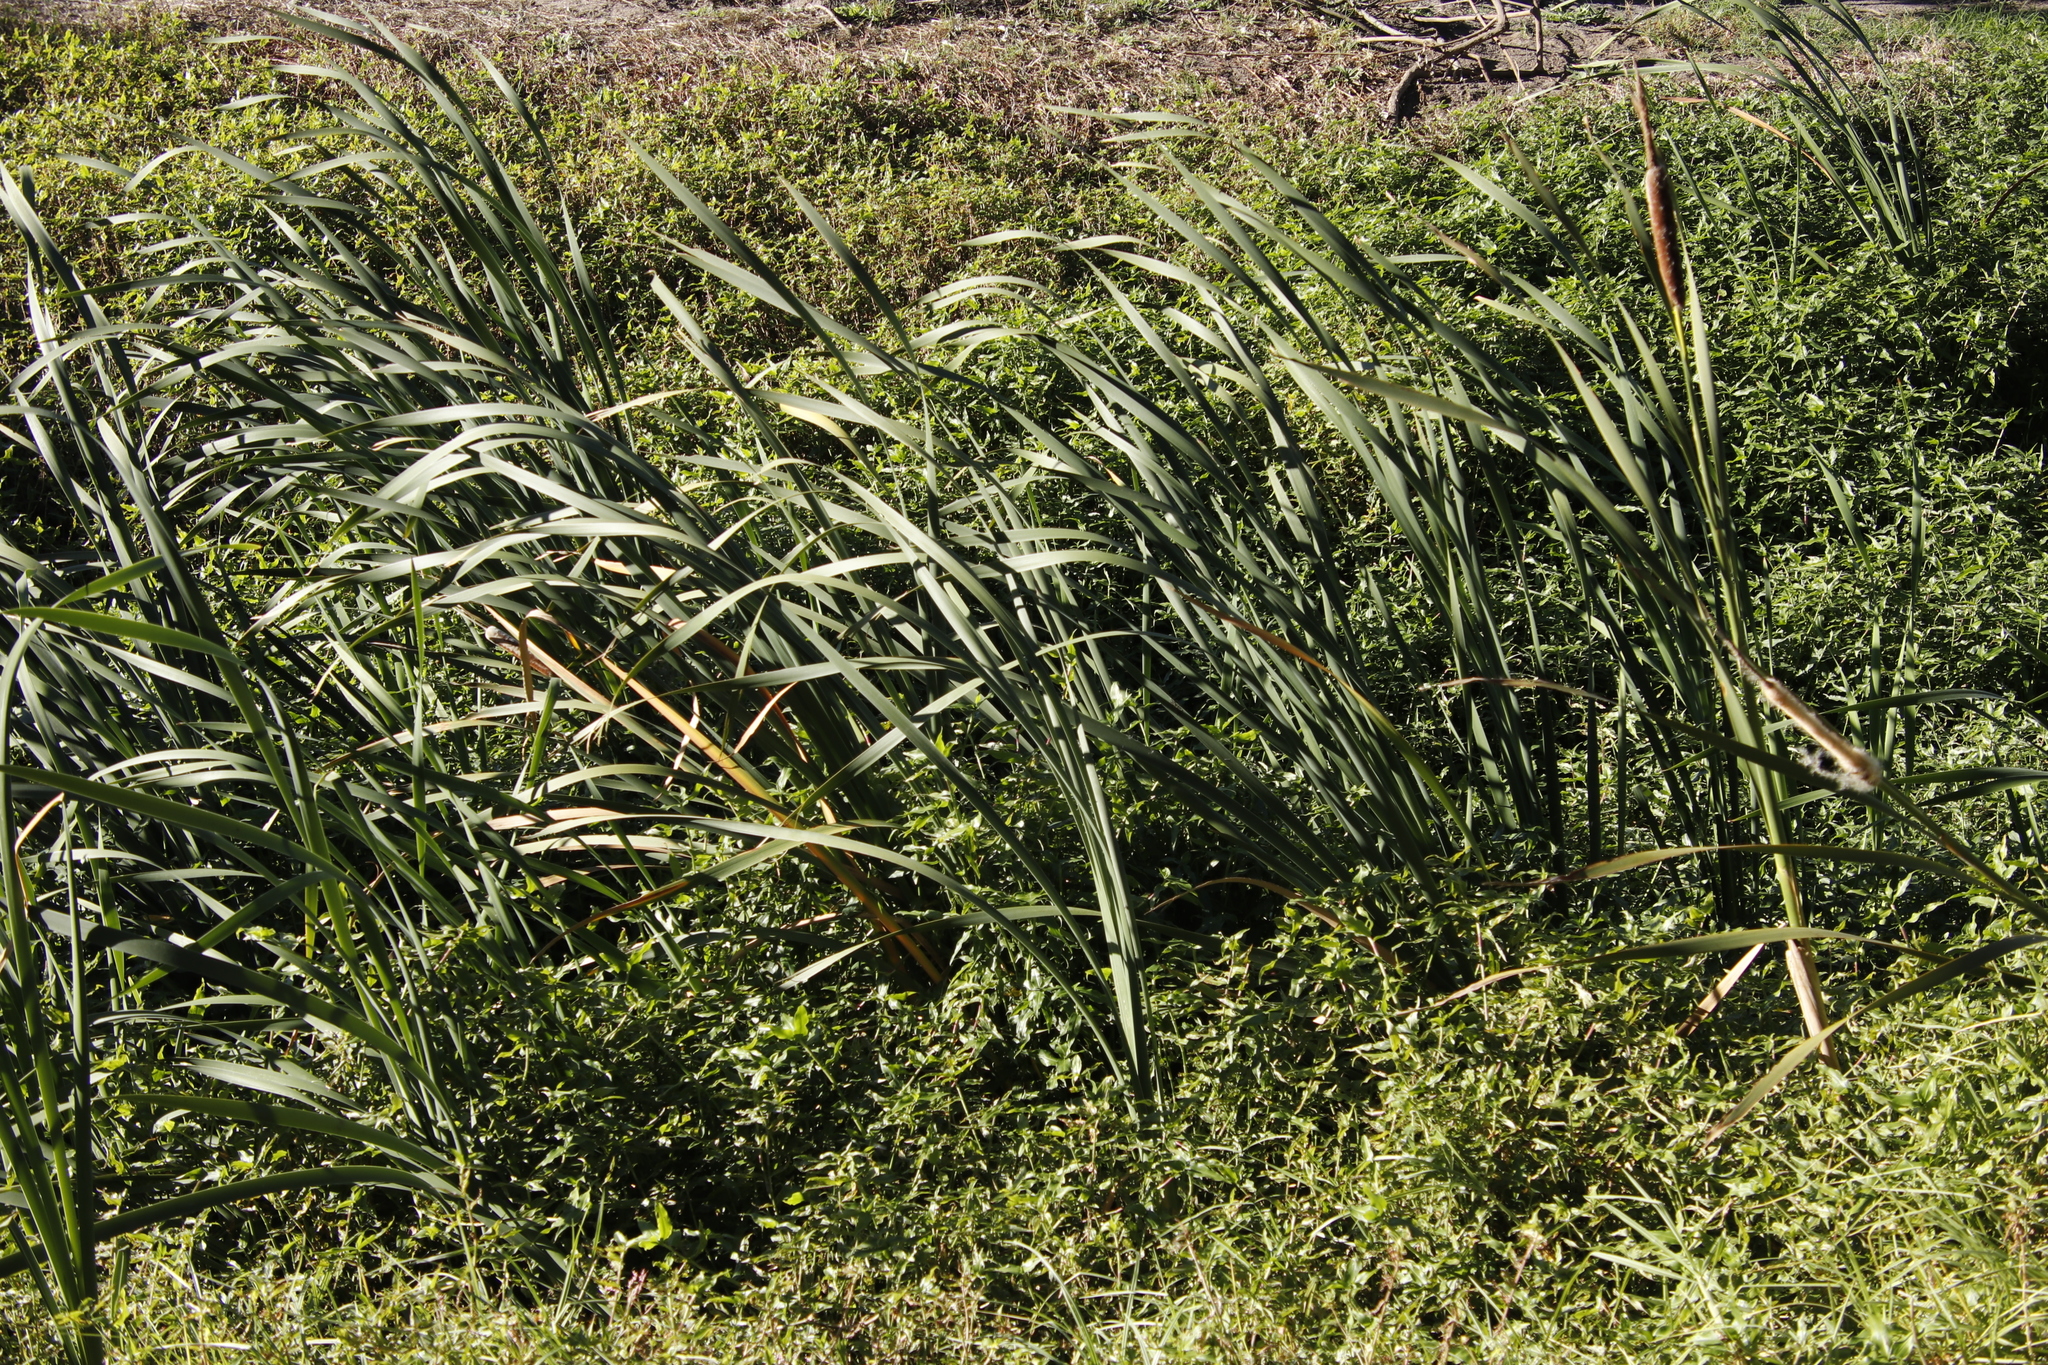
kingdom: Plantae
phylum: Tracheophyta
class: Liliopsida
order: Poales
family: Typhaceae
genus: Typha
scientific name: Typha capensis
